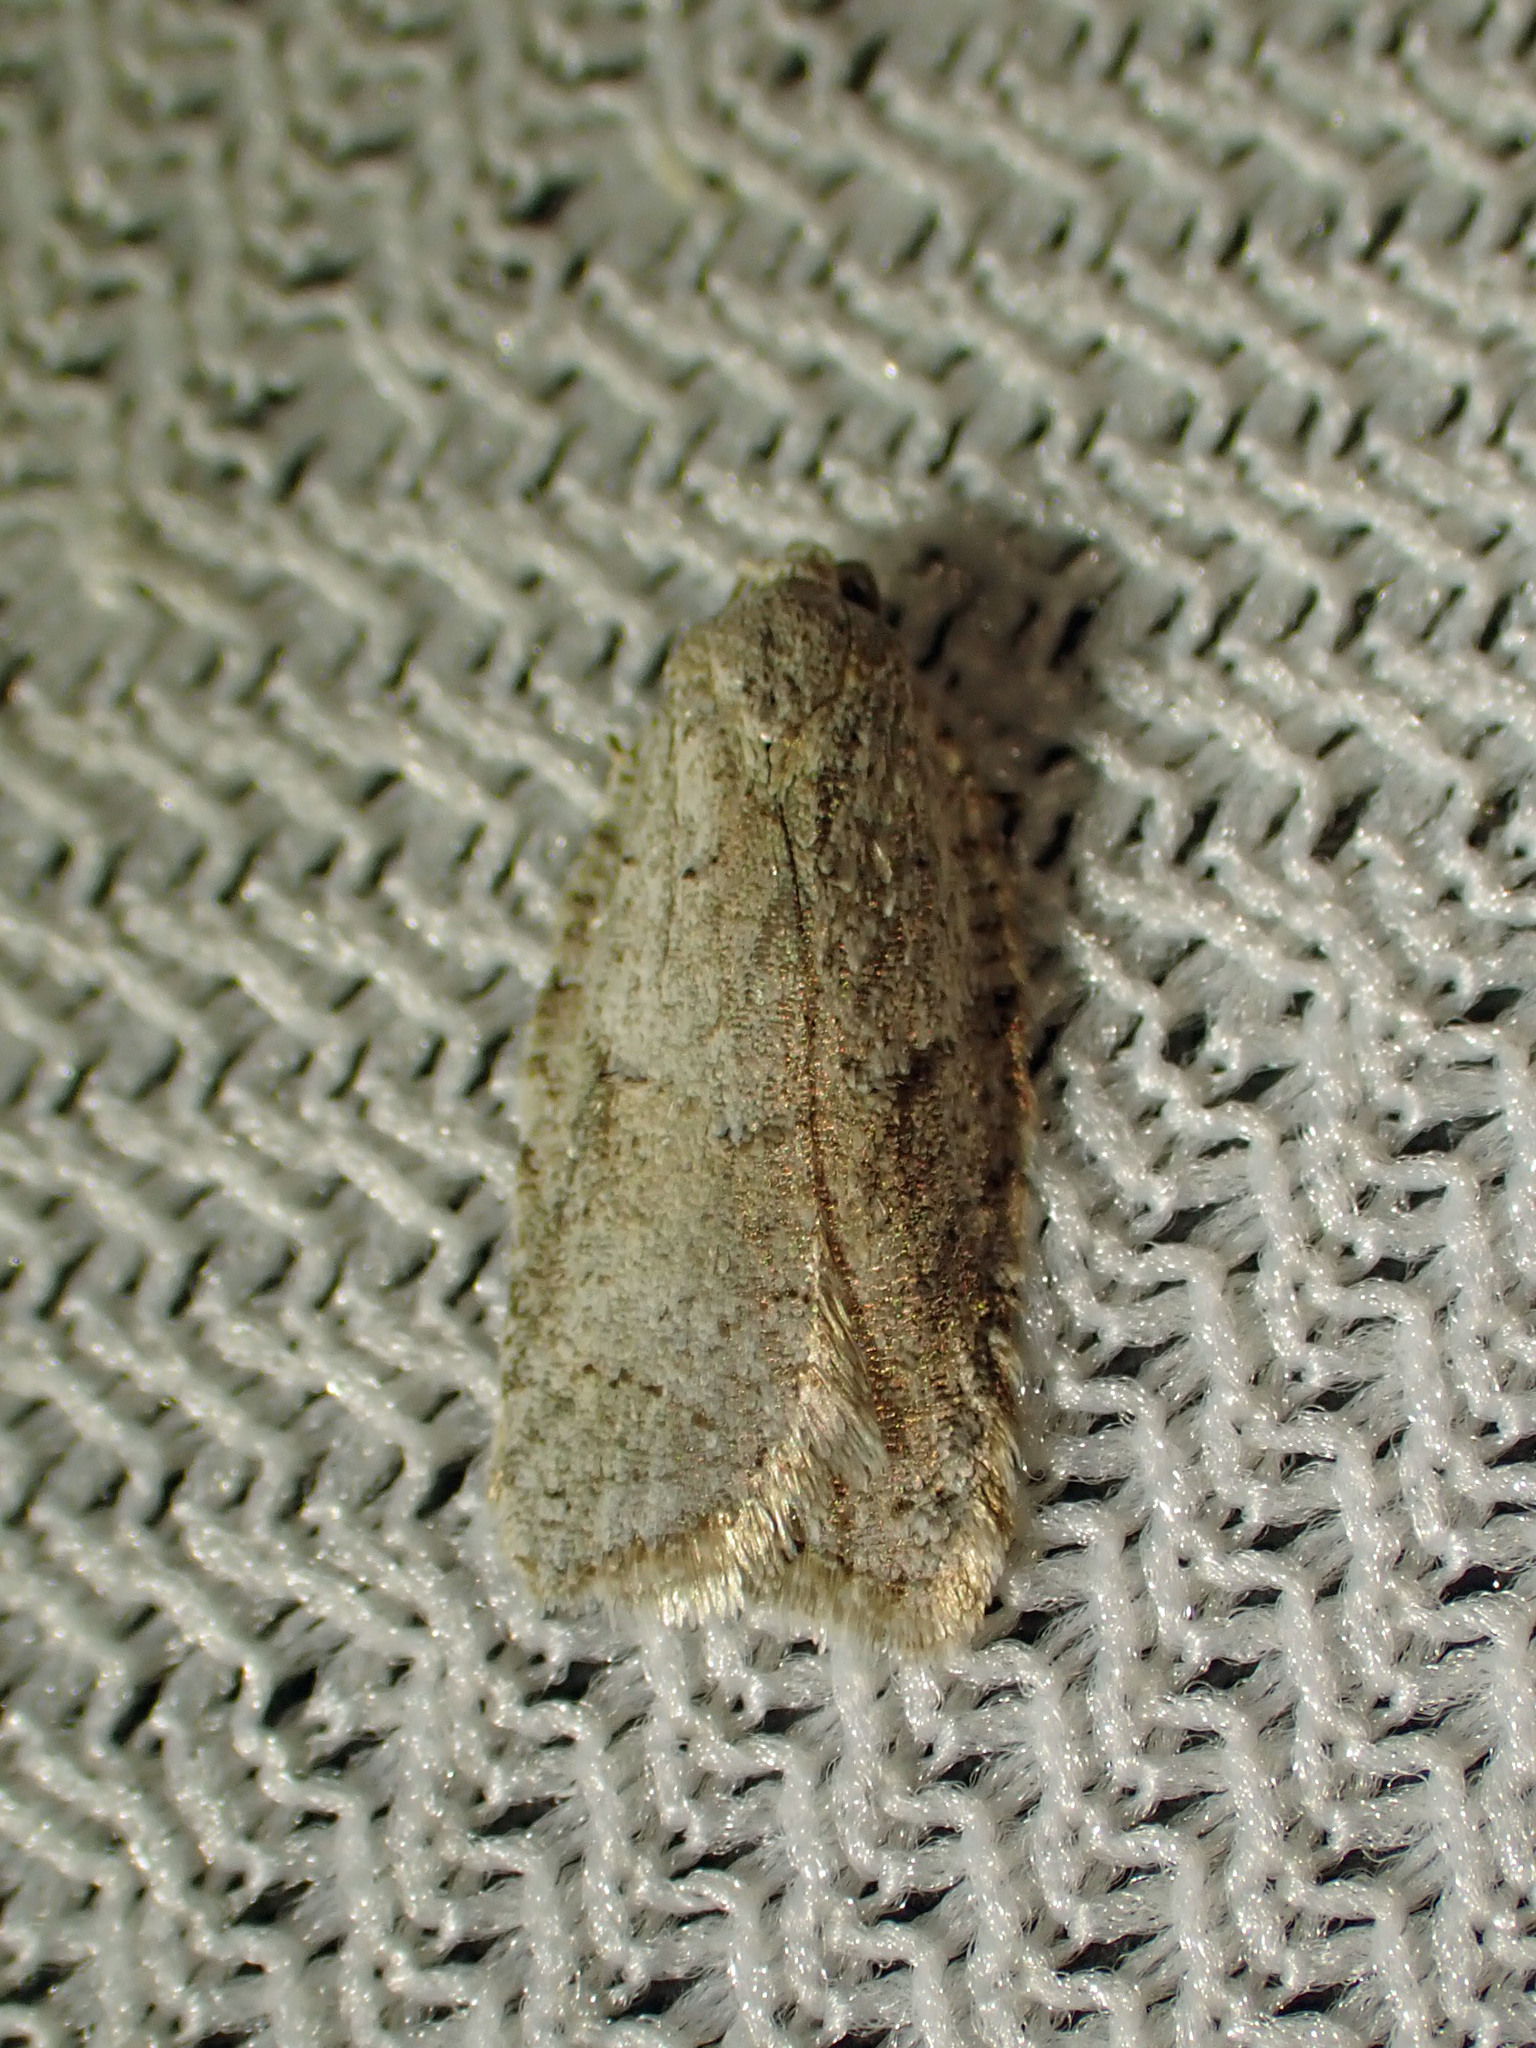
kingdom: Animalia
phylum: Arthropoda
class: Insecta
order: Lepidoptera
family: Tortricidae
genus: Acleris
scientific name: Acleris placidana
